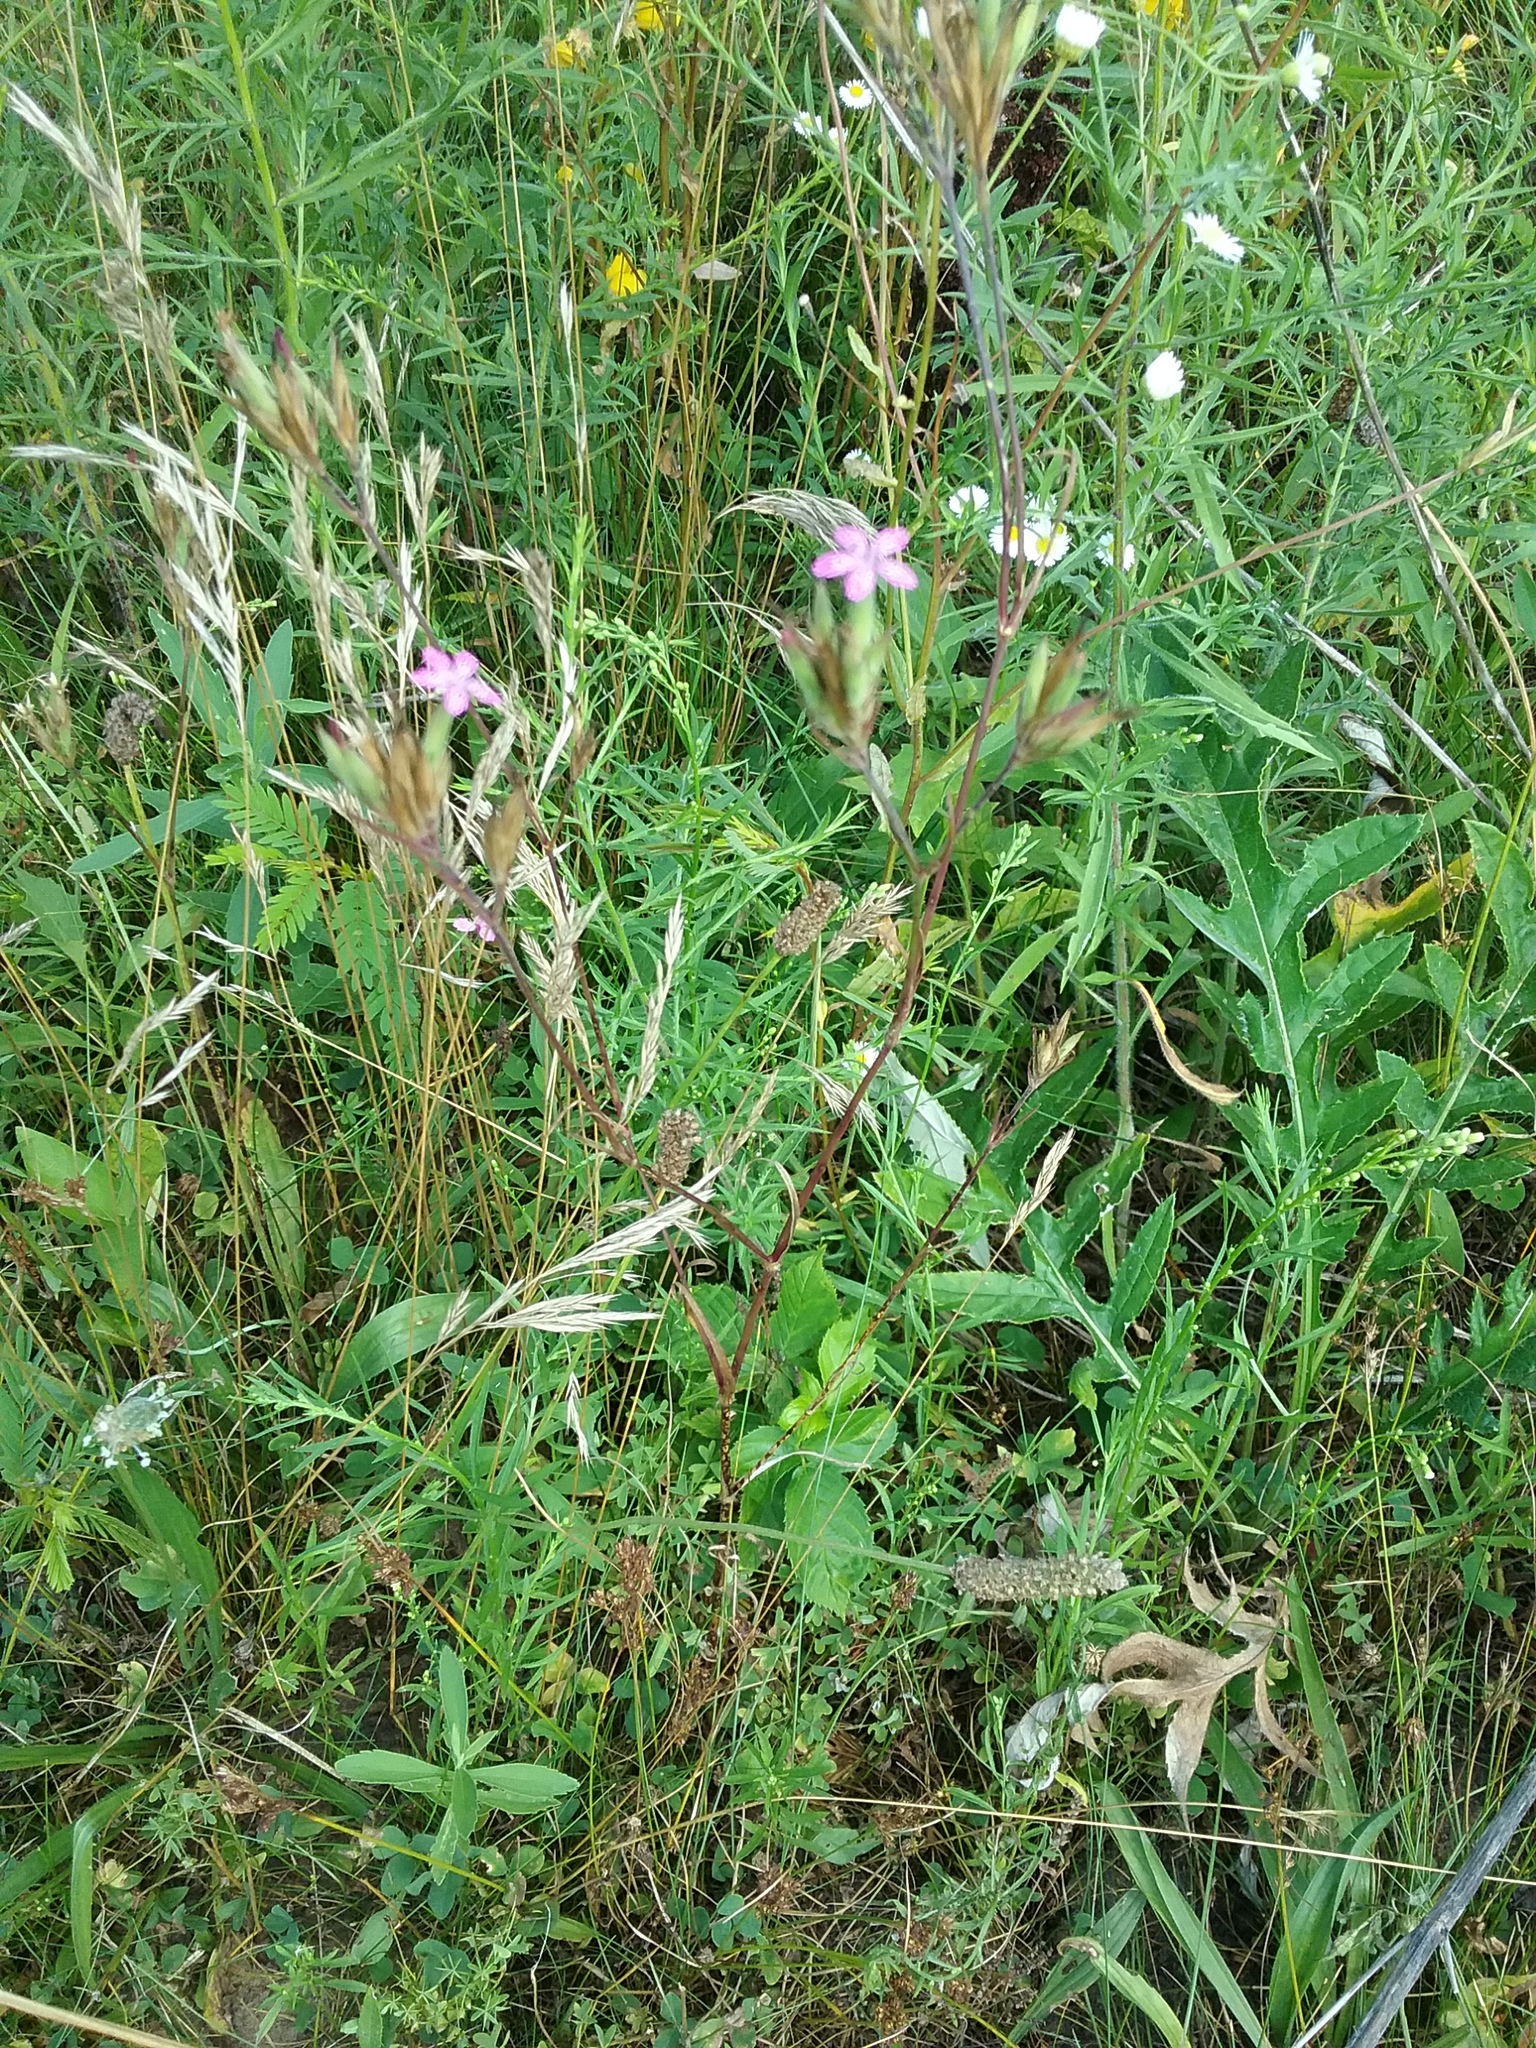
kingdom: Plantae
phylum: Tracheophyta
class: Magnoliopsida
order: Caryophyllales
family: Caryophyllaceae
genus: Dianthus
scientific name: Dianthus armeria
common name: Deptford pink
